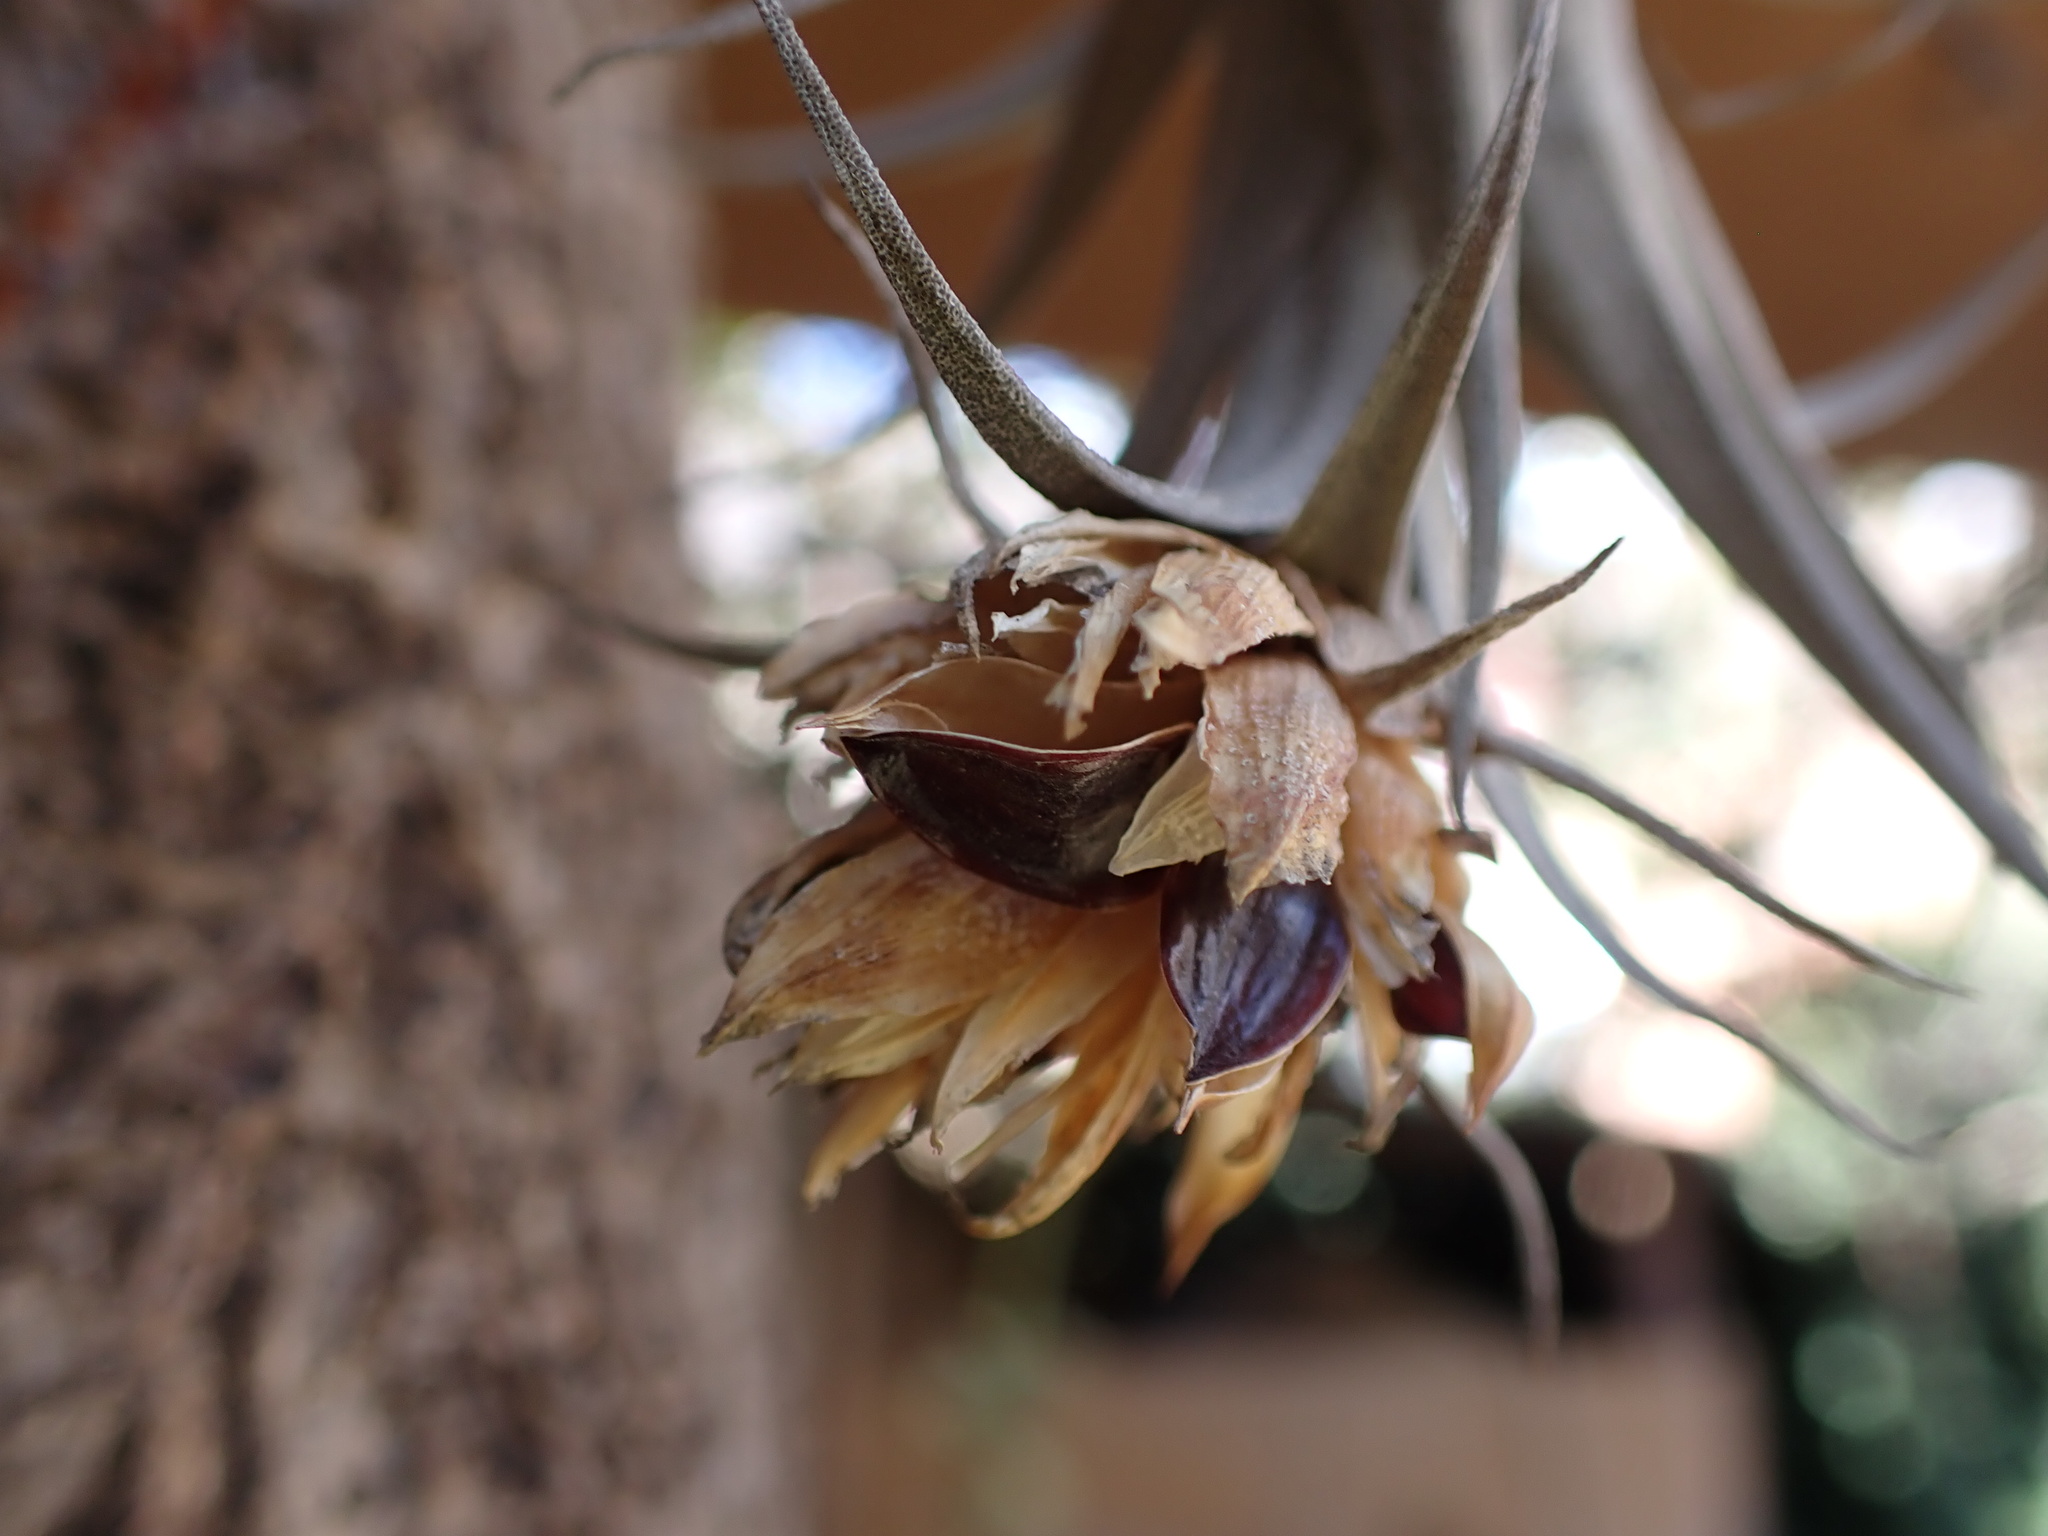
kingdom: Plantae
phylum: Tracheophyta
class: Liliopsida
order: Poales
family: Bromeliaceae
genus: Tillandsia
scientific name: Tillandsia nana
